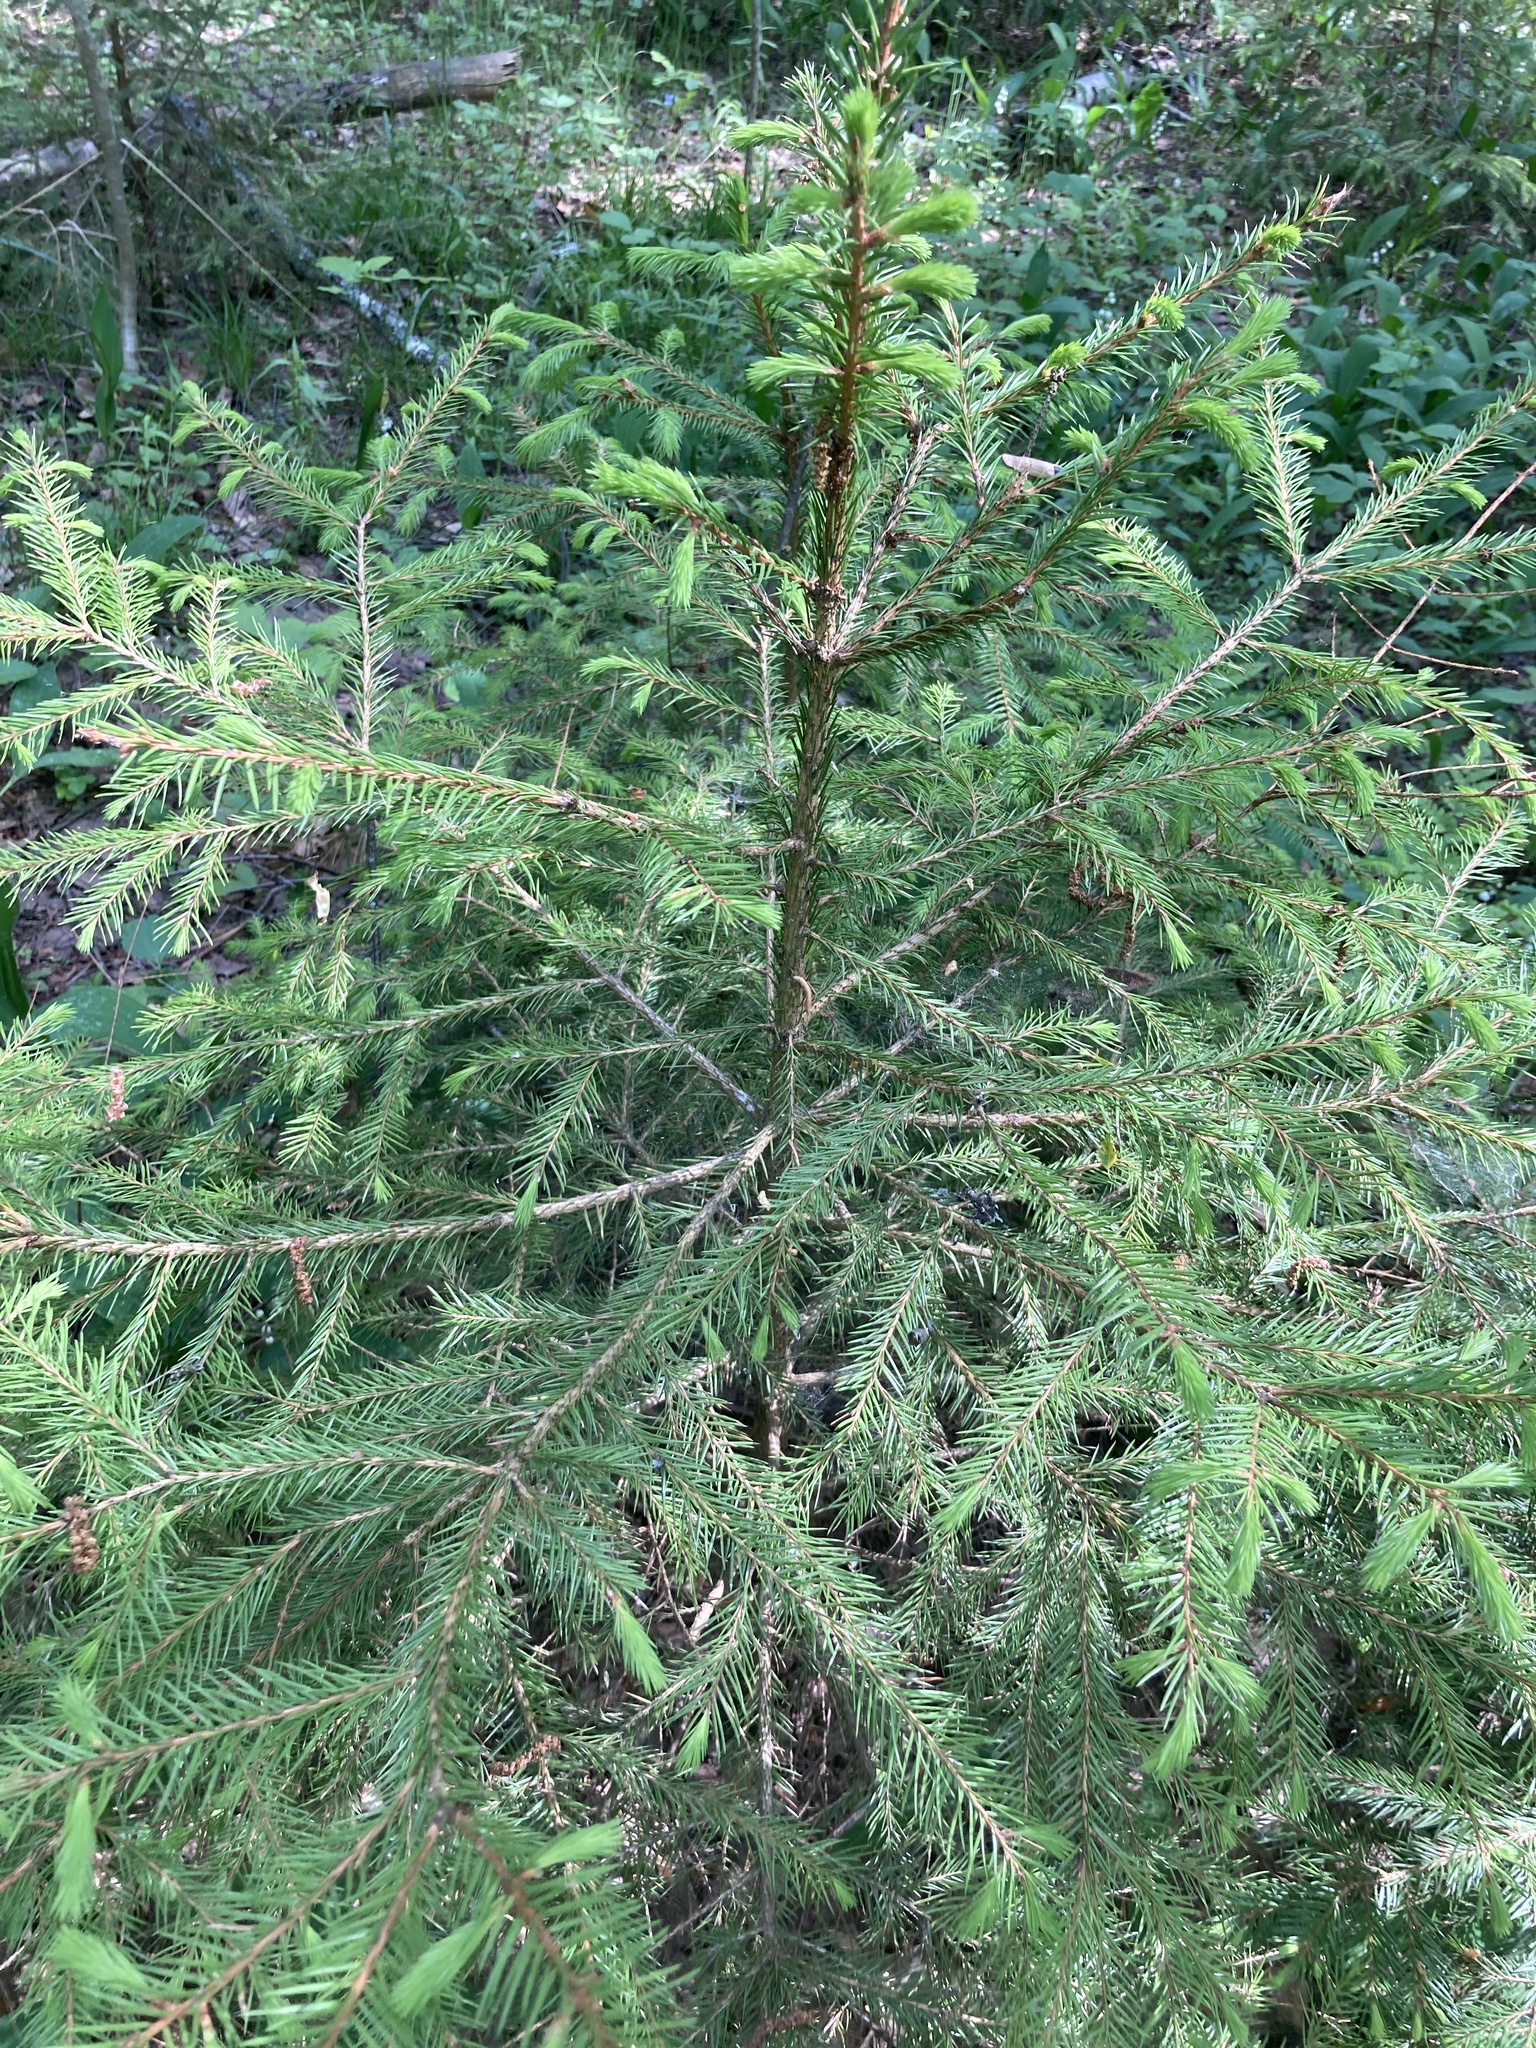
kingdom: Plantae
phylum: Tracheophyta
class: Pinopsida
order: Pinales
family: Pinaceae
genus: Picea
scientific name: Picea abies
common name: Norway spruce
